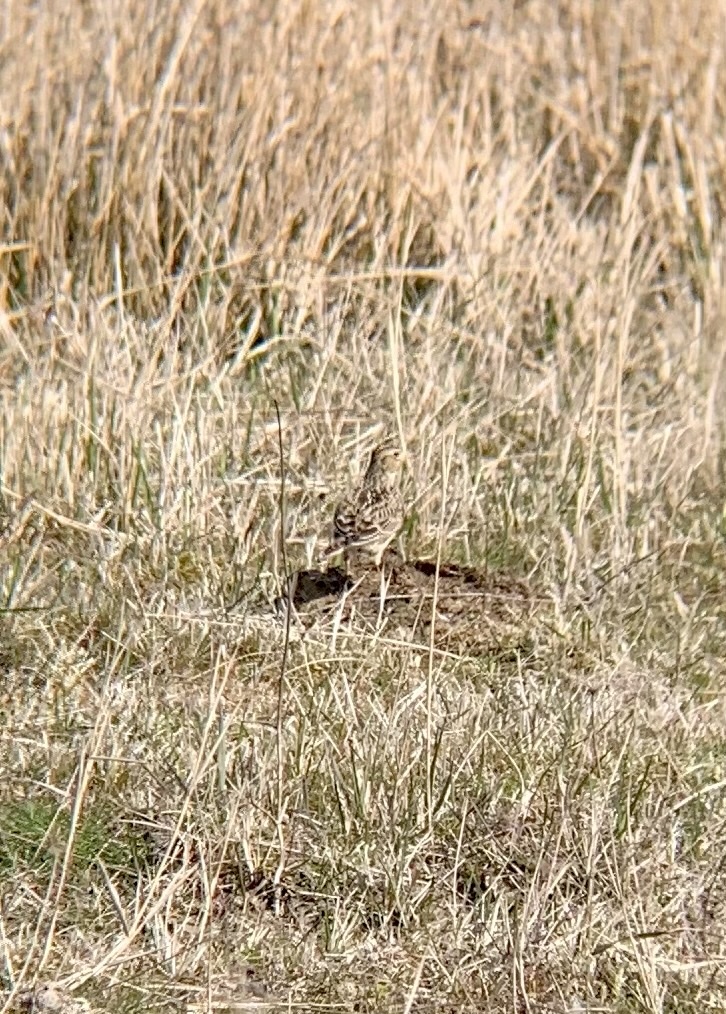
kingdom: Animalia
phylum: Chordata
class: Aves
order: Passeriformes
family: Alaudidae
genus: Alauda
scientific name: Alauda arvensis
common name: Eurasian skylark
